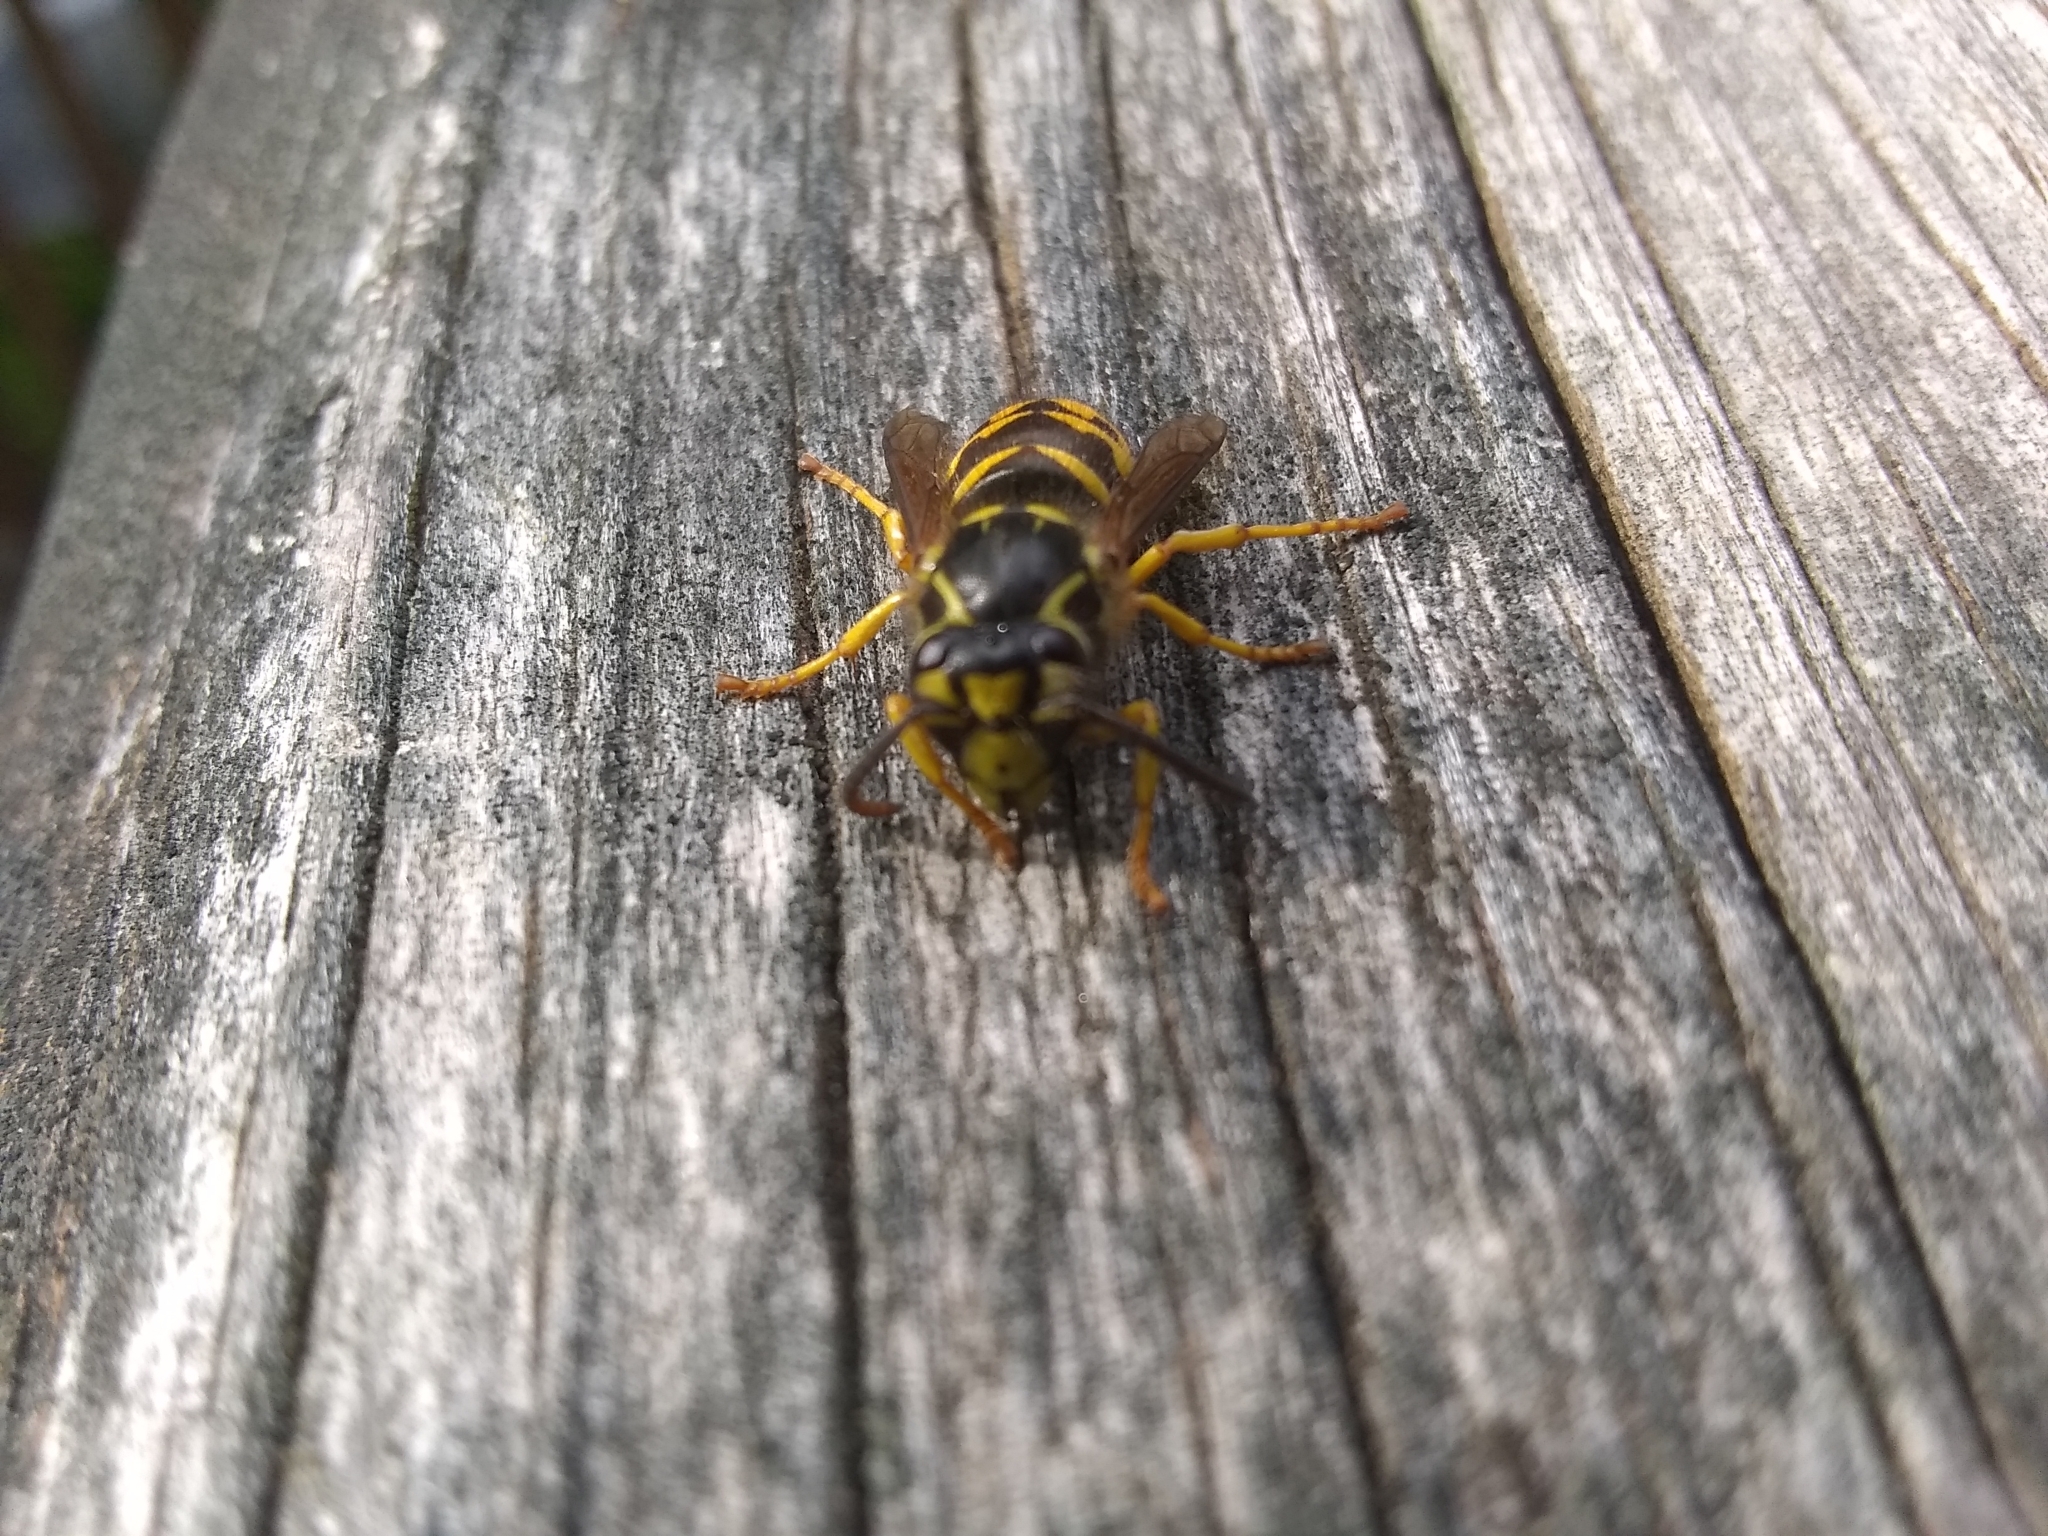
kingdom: Animalia
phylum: Arthropoda
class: Insecta
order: Hymenoptera
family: Vespidae
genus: Dolichovespula
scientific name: Dolichovespula arenaria
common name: Aerial yellowjacket
